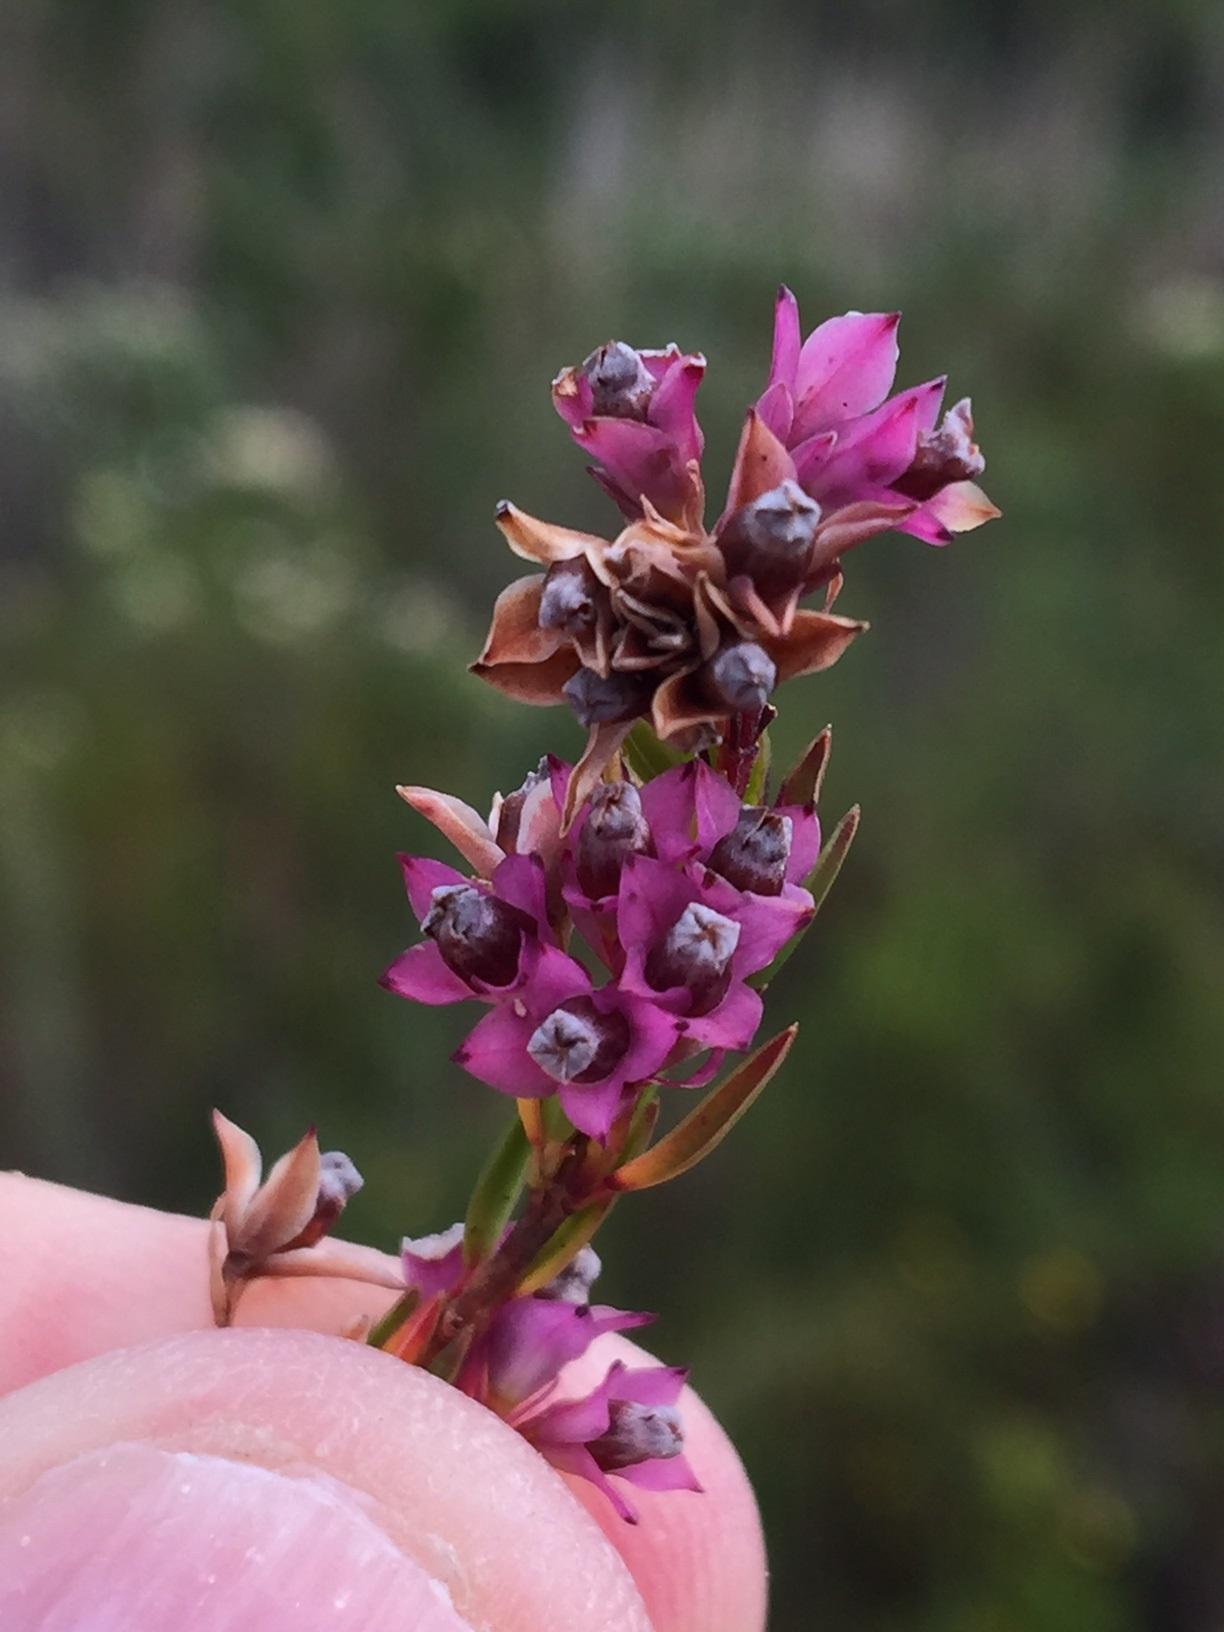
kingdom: Plantae
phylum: Tracheophyta
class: Magnoliopsida
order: Ericales
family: Ericaceae
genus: Erica
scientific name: Erica corifolia
